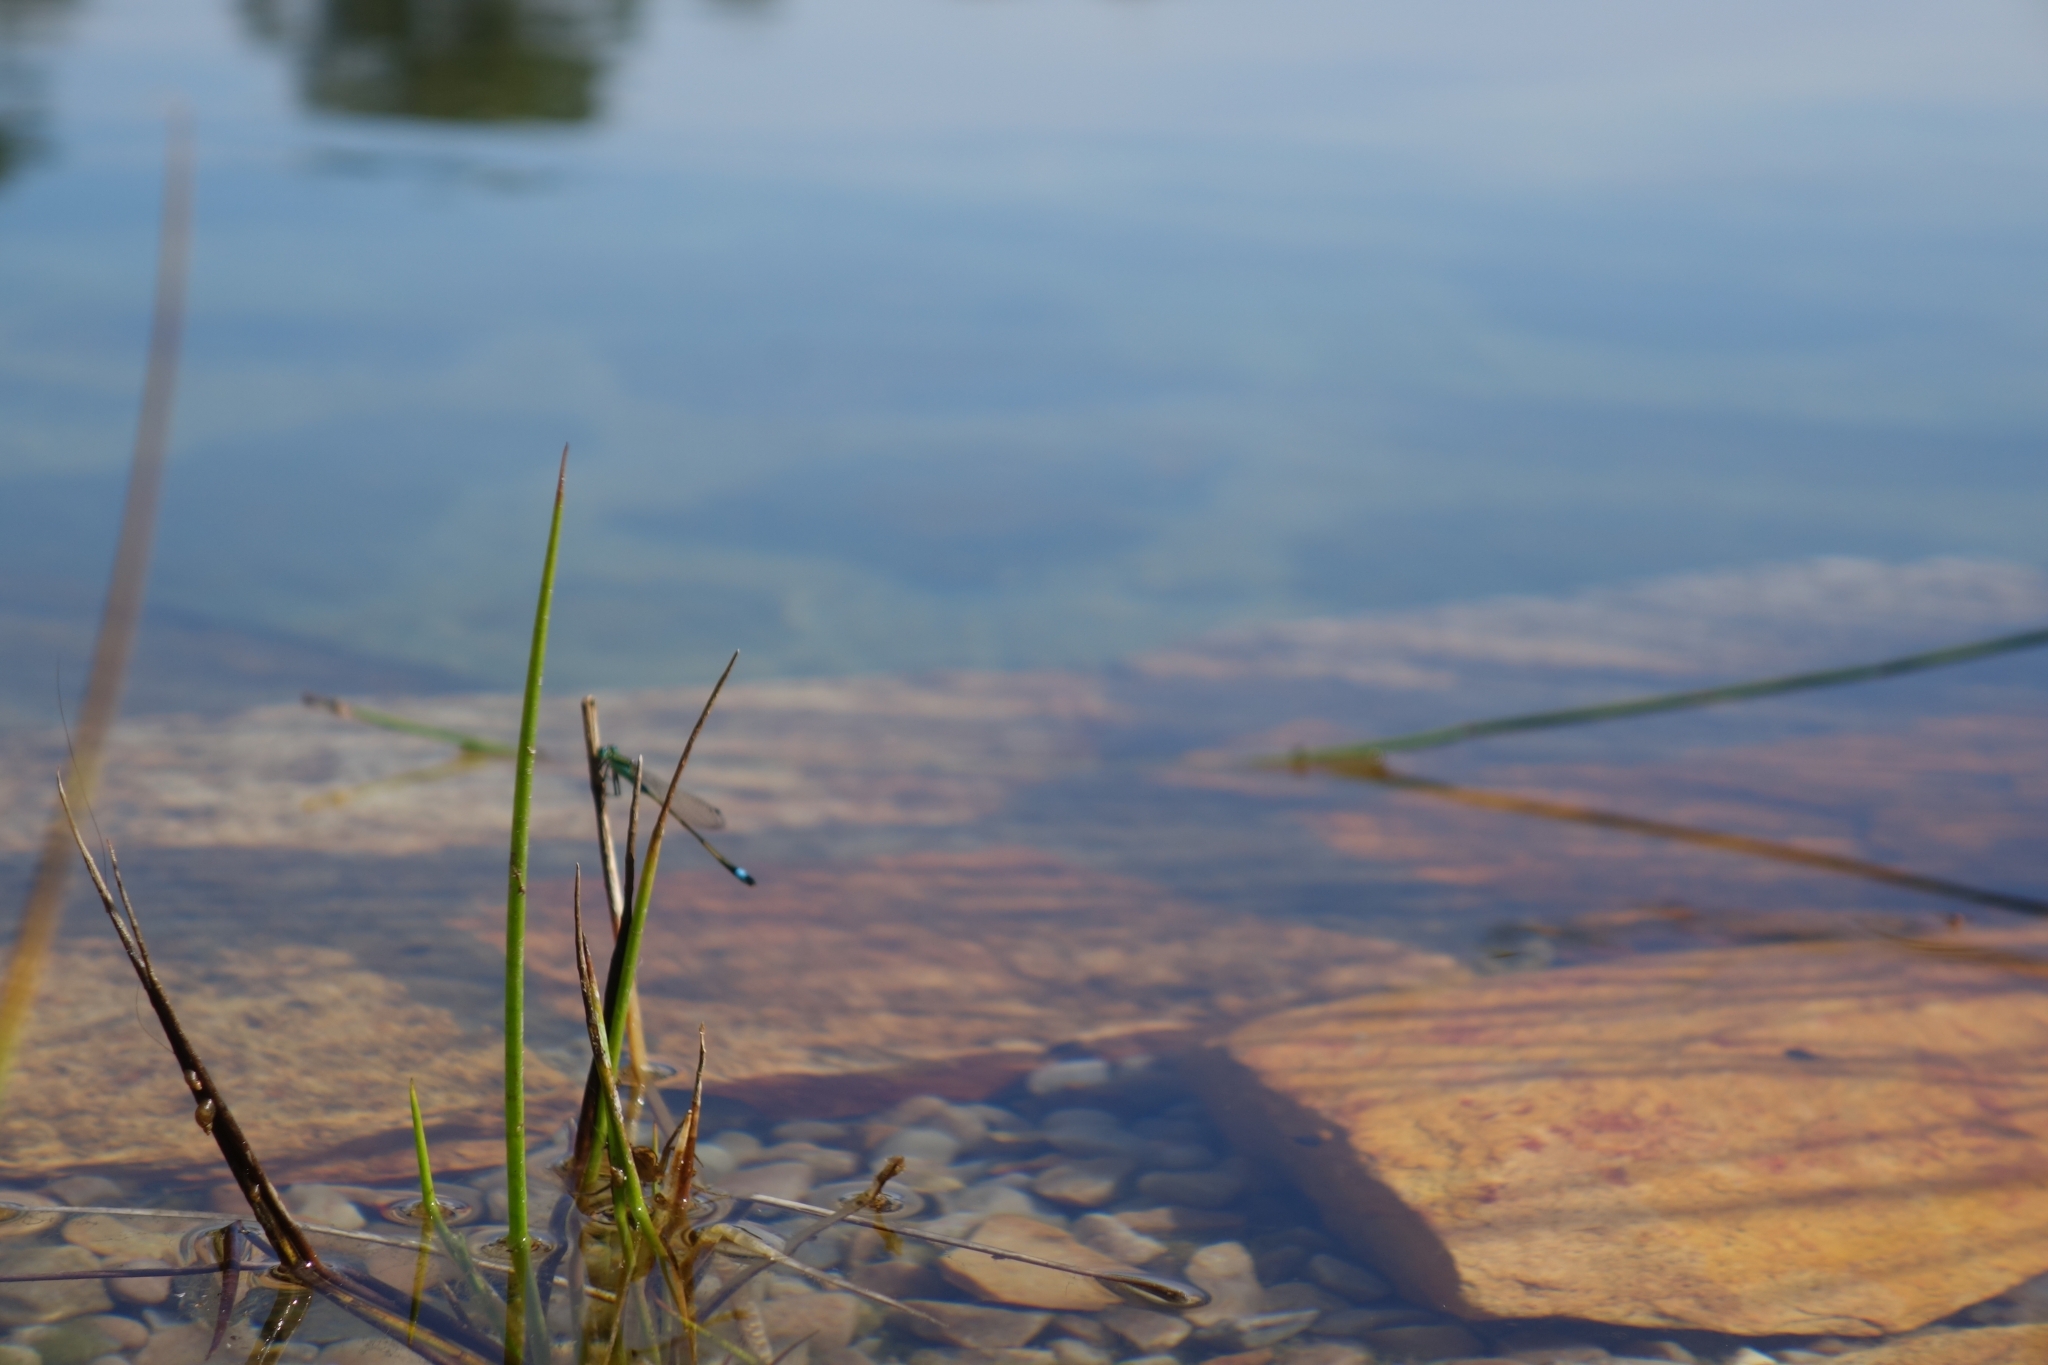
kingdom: Animalia
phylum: Arthropoda
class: Insecta
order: Odonata
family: Coenagrionidae
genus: Ischnura
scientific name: Ischnura senegalensis
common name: Tropical bluetail
